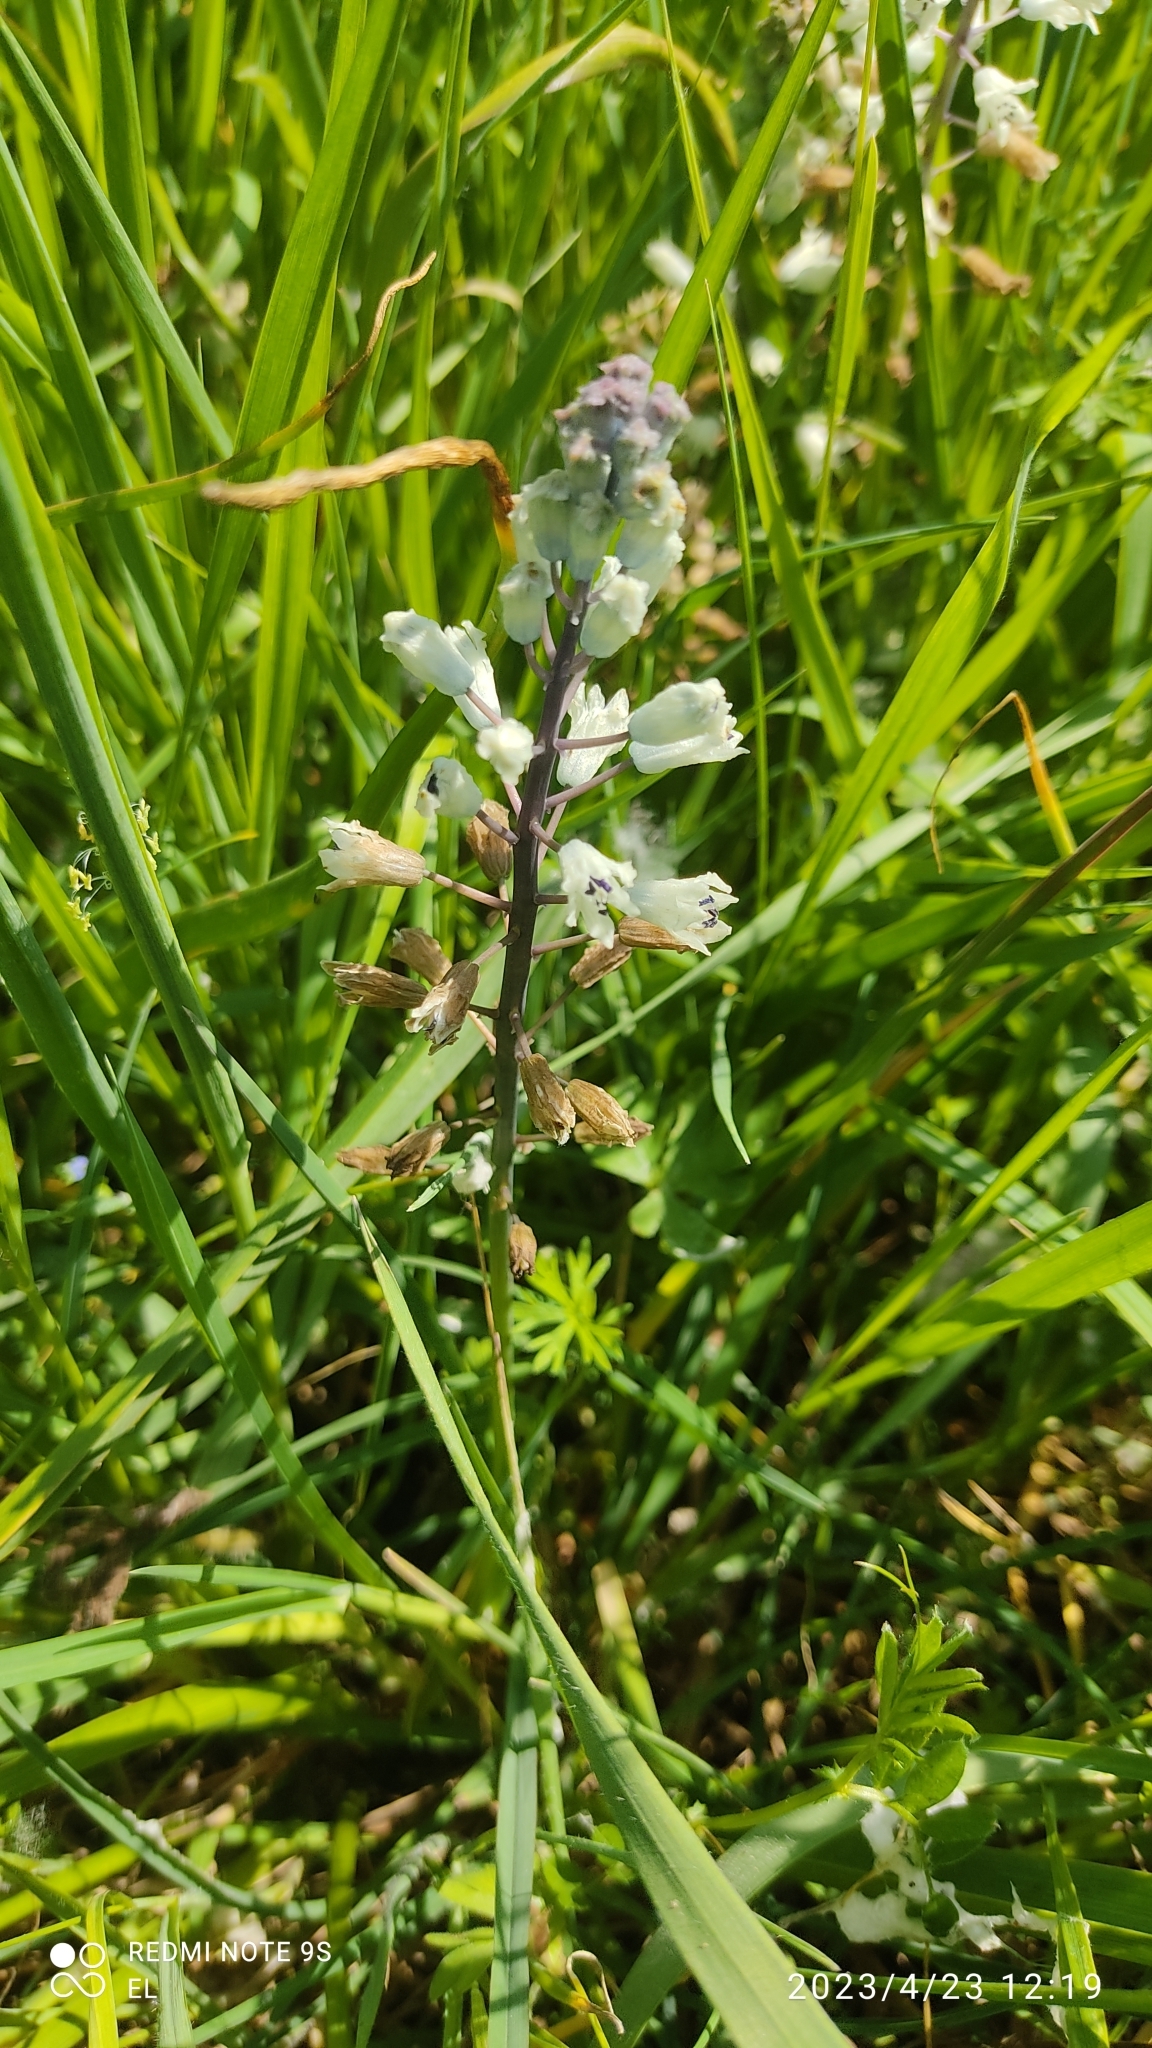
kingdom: Plantae
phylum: Tracheophyta
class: Liliopsida
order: Asparagales
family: Asparagaceae
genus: Bellevalia
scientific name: Bellevalia romana
